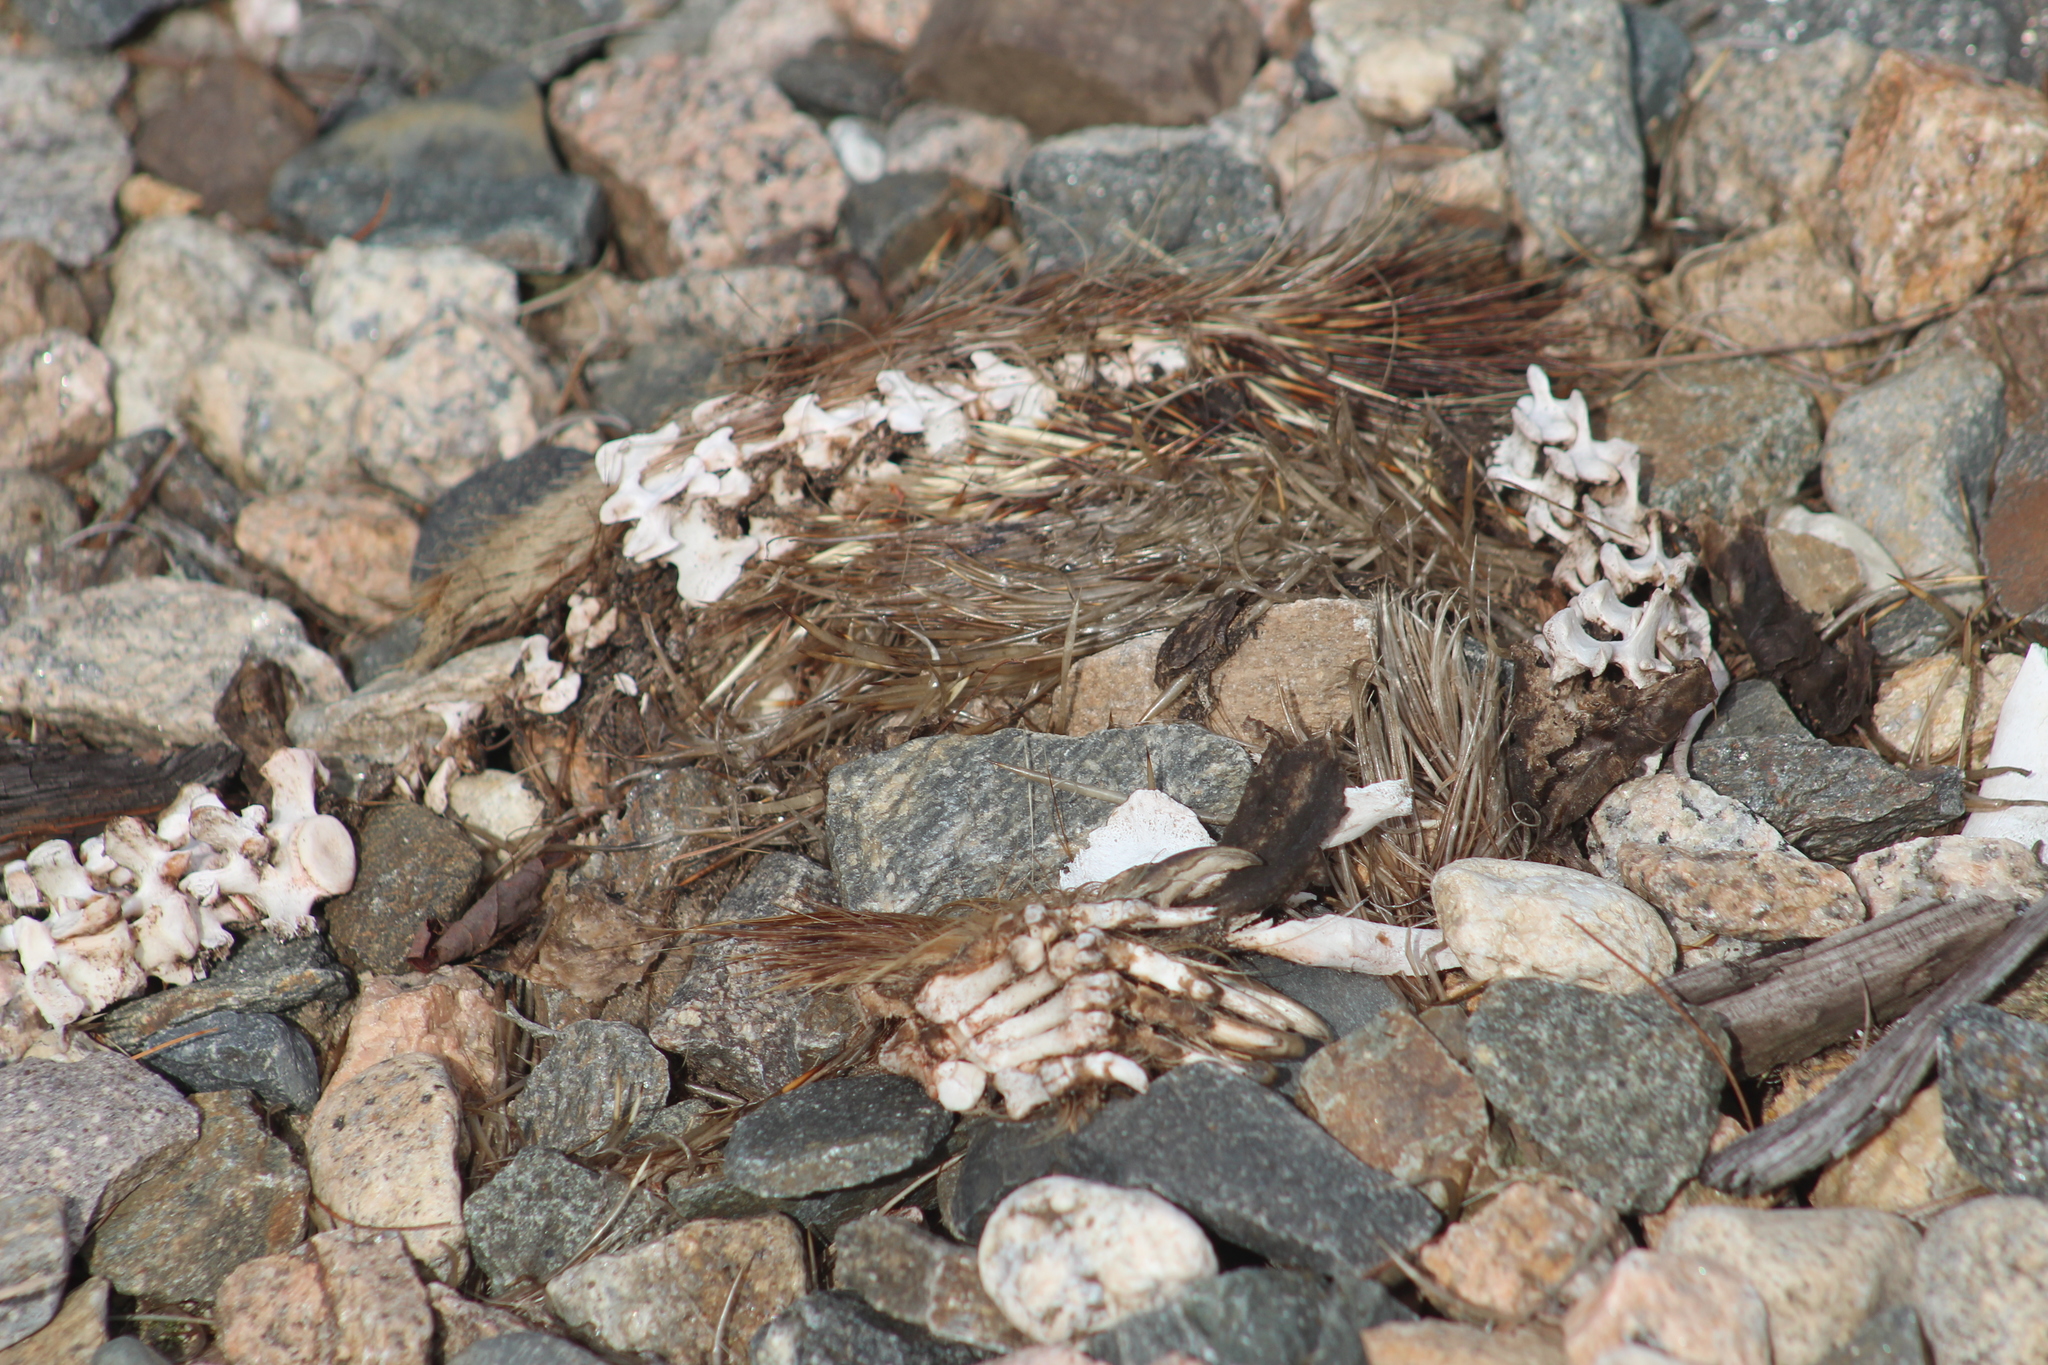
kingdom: Animalia
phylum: Chordata
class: Mammalia
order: Rodentia
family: Erethizontidae
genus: Erethizon
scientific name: Erethizon dorsatus
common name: North american porcupine
